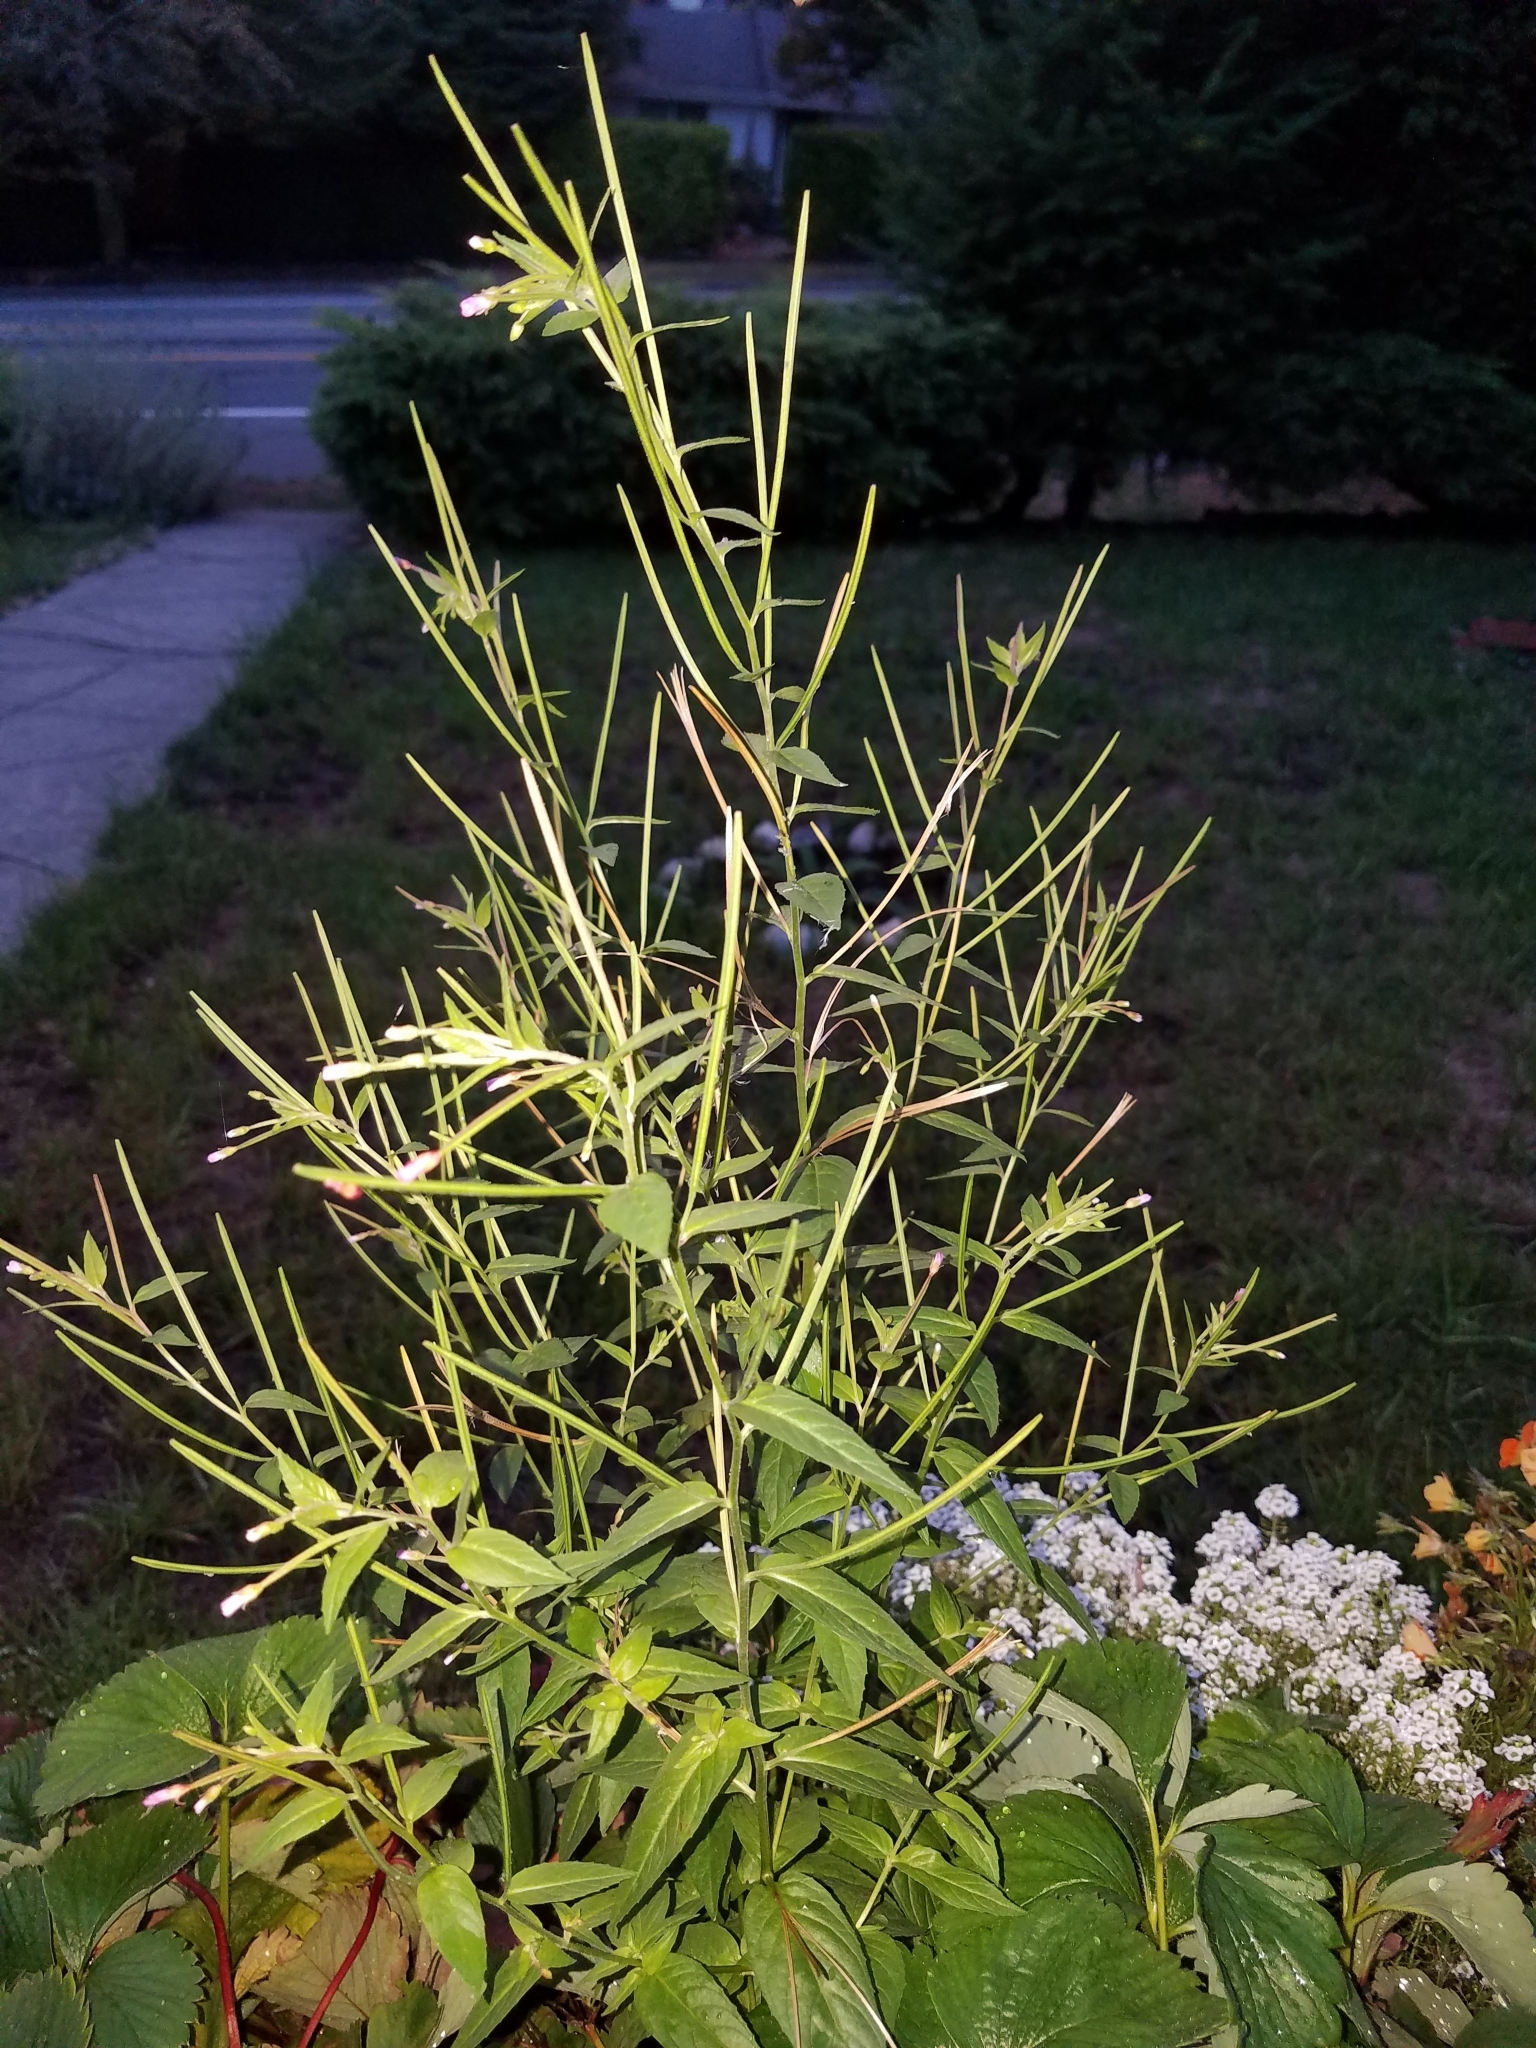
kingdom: Plantae
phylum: Tracheophyta
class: Magnoliopsida
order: Myrtales
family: Onagraceae
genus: Epilobium
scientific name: Epilobium ciliatum
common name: American willowherb
